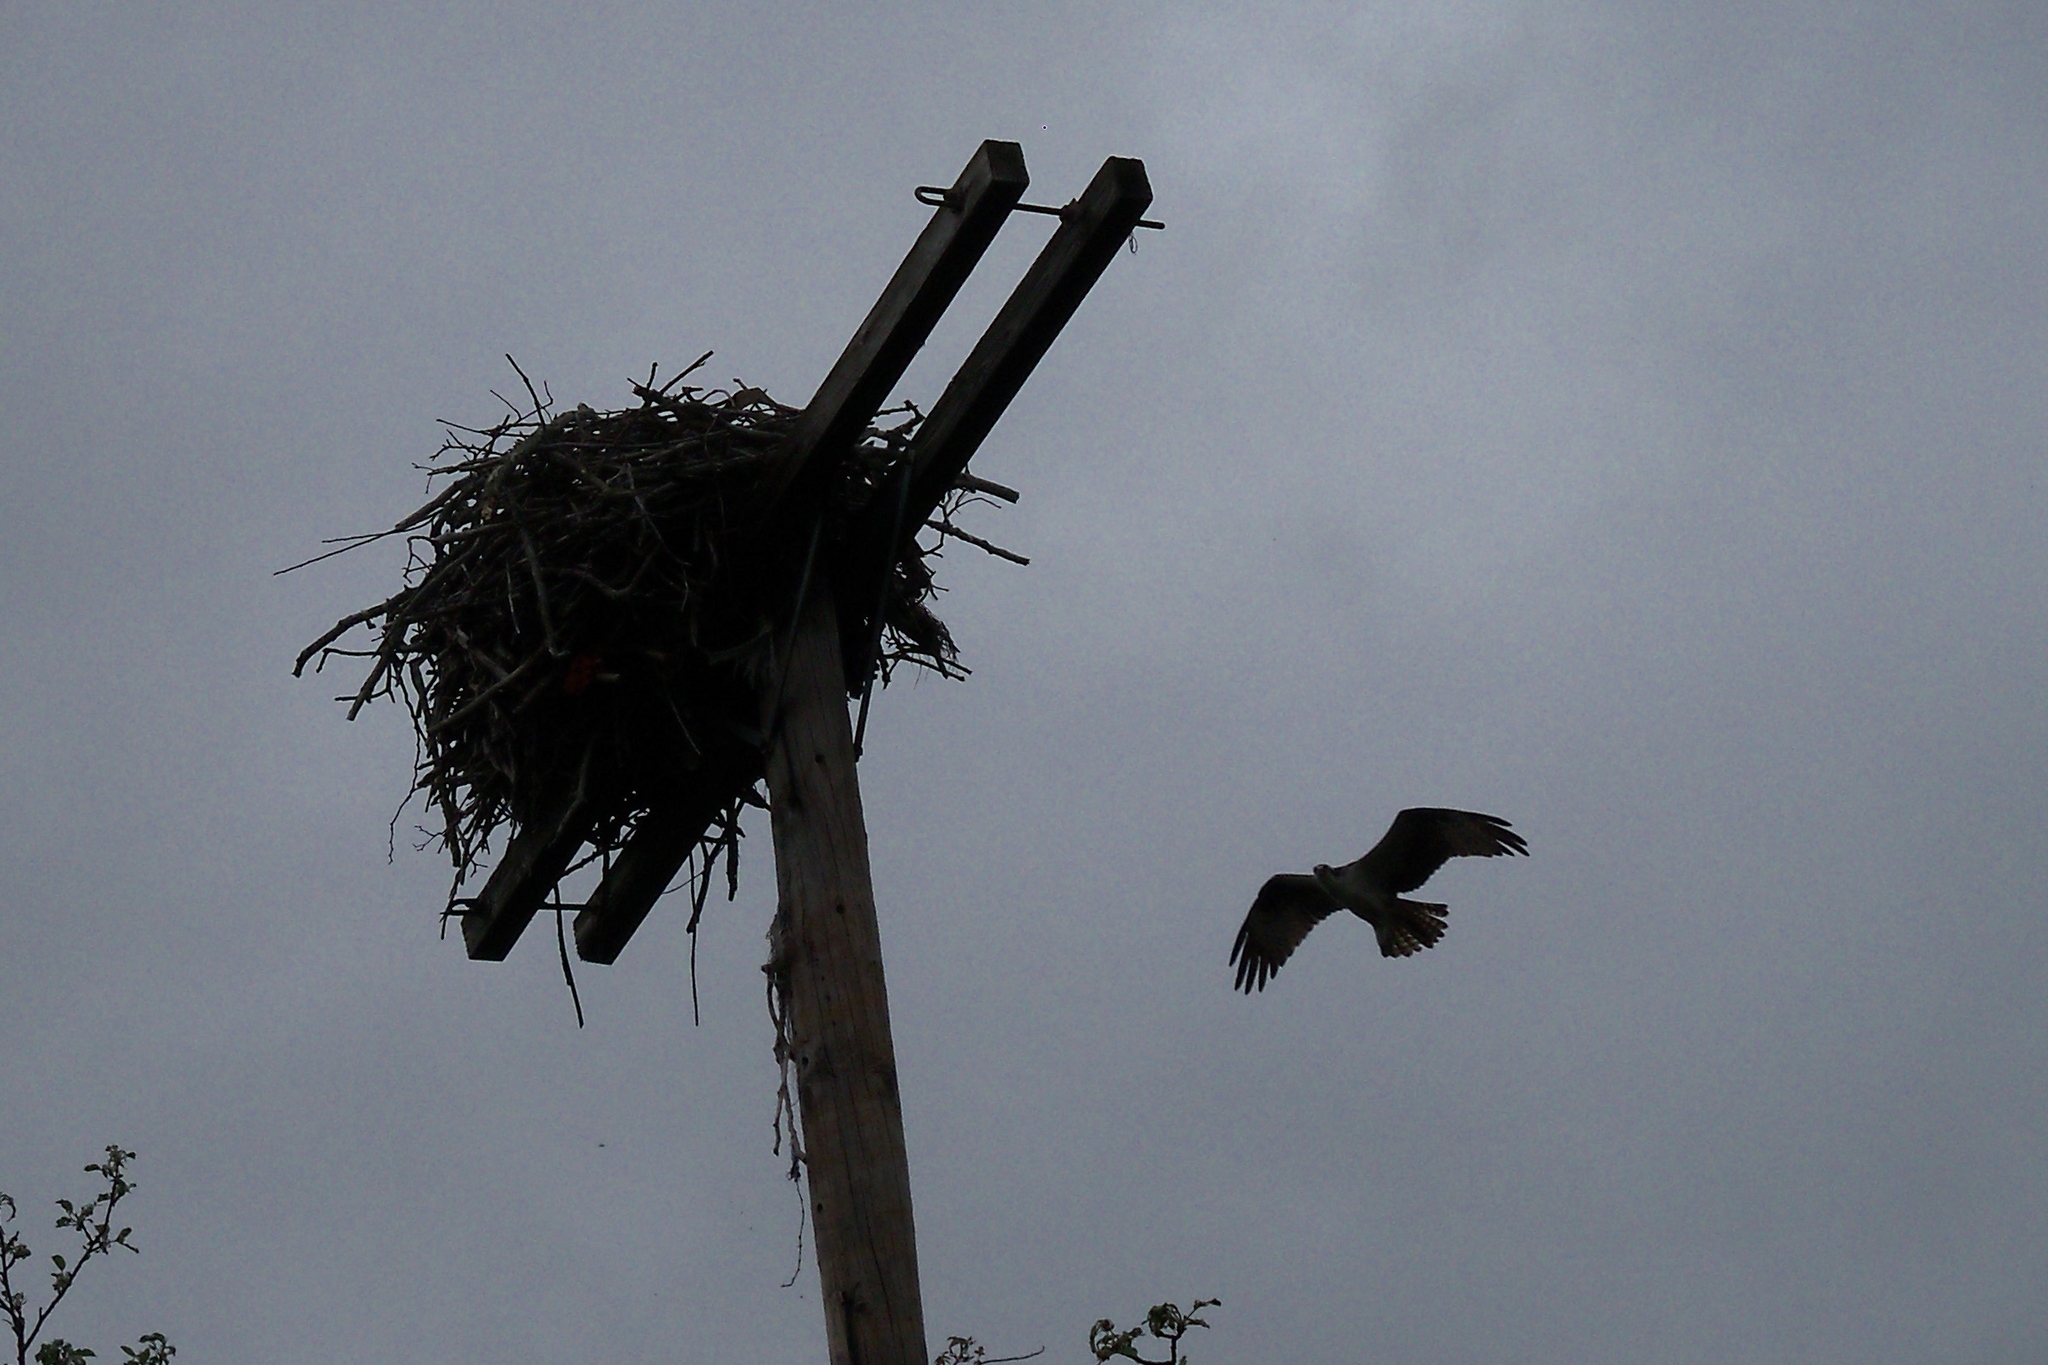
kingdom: Animalia
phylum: Chordata
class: Aves
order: Accipitriformes
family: Pandionidae
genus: Pandion
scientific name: Pandion haliaetus
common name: Osprey
